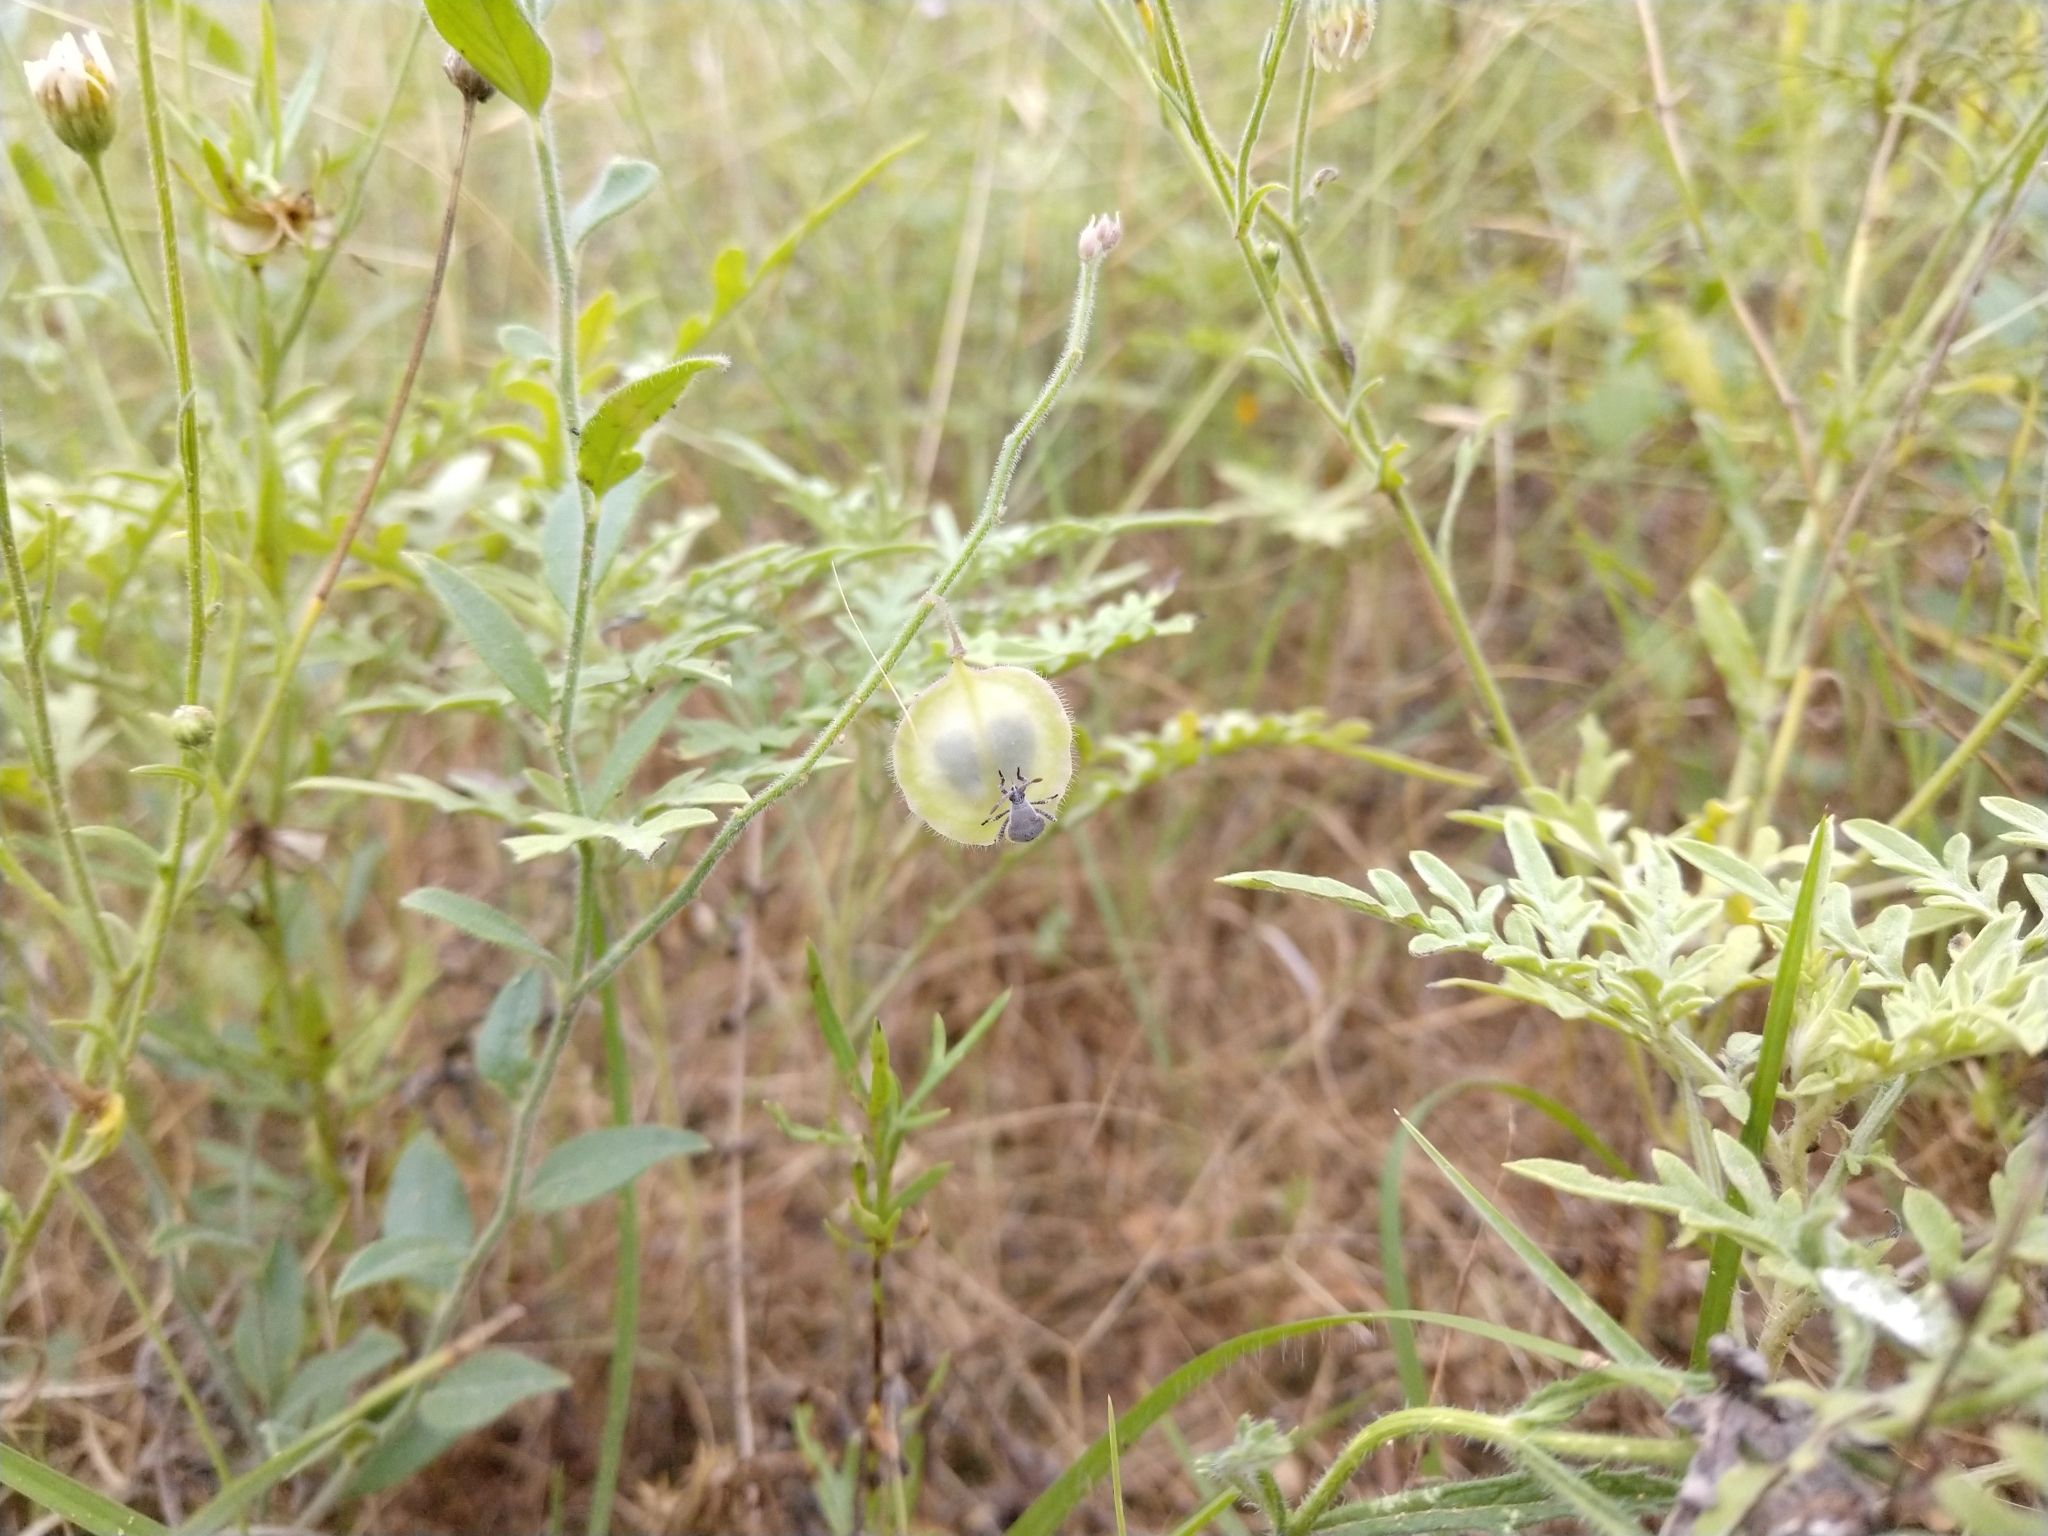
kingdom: Plantae
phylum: Tracheophyta
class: Magnoliopsida
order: Fabales
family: Polygalaceae
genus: Hebecarpa
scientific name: Hebecarpa ovatifolia
